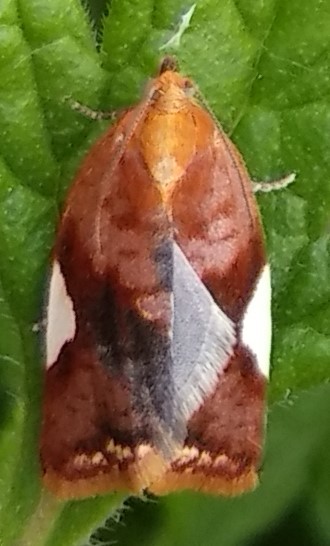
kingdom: Animalia
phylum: Arthropoda
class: Insecta
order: Lepidoptera
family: Tortricidae
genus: Clepsis
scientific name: Clepsis persicana
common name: White triangle tortrix
